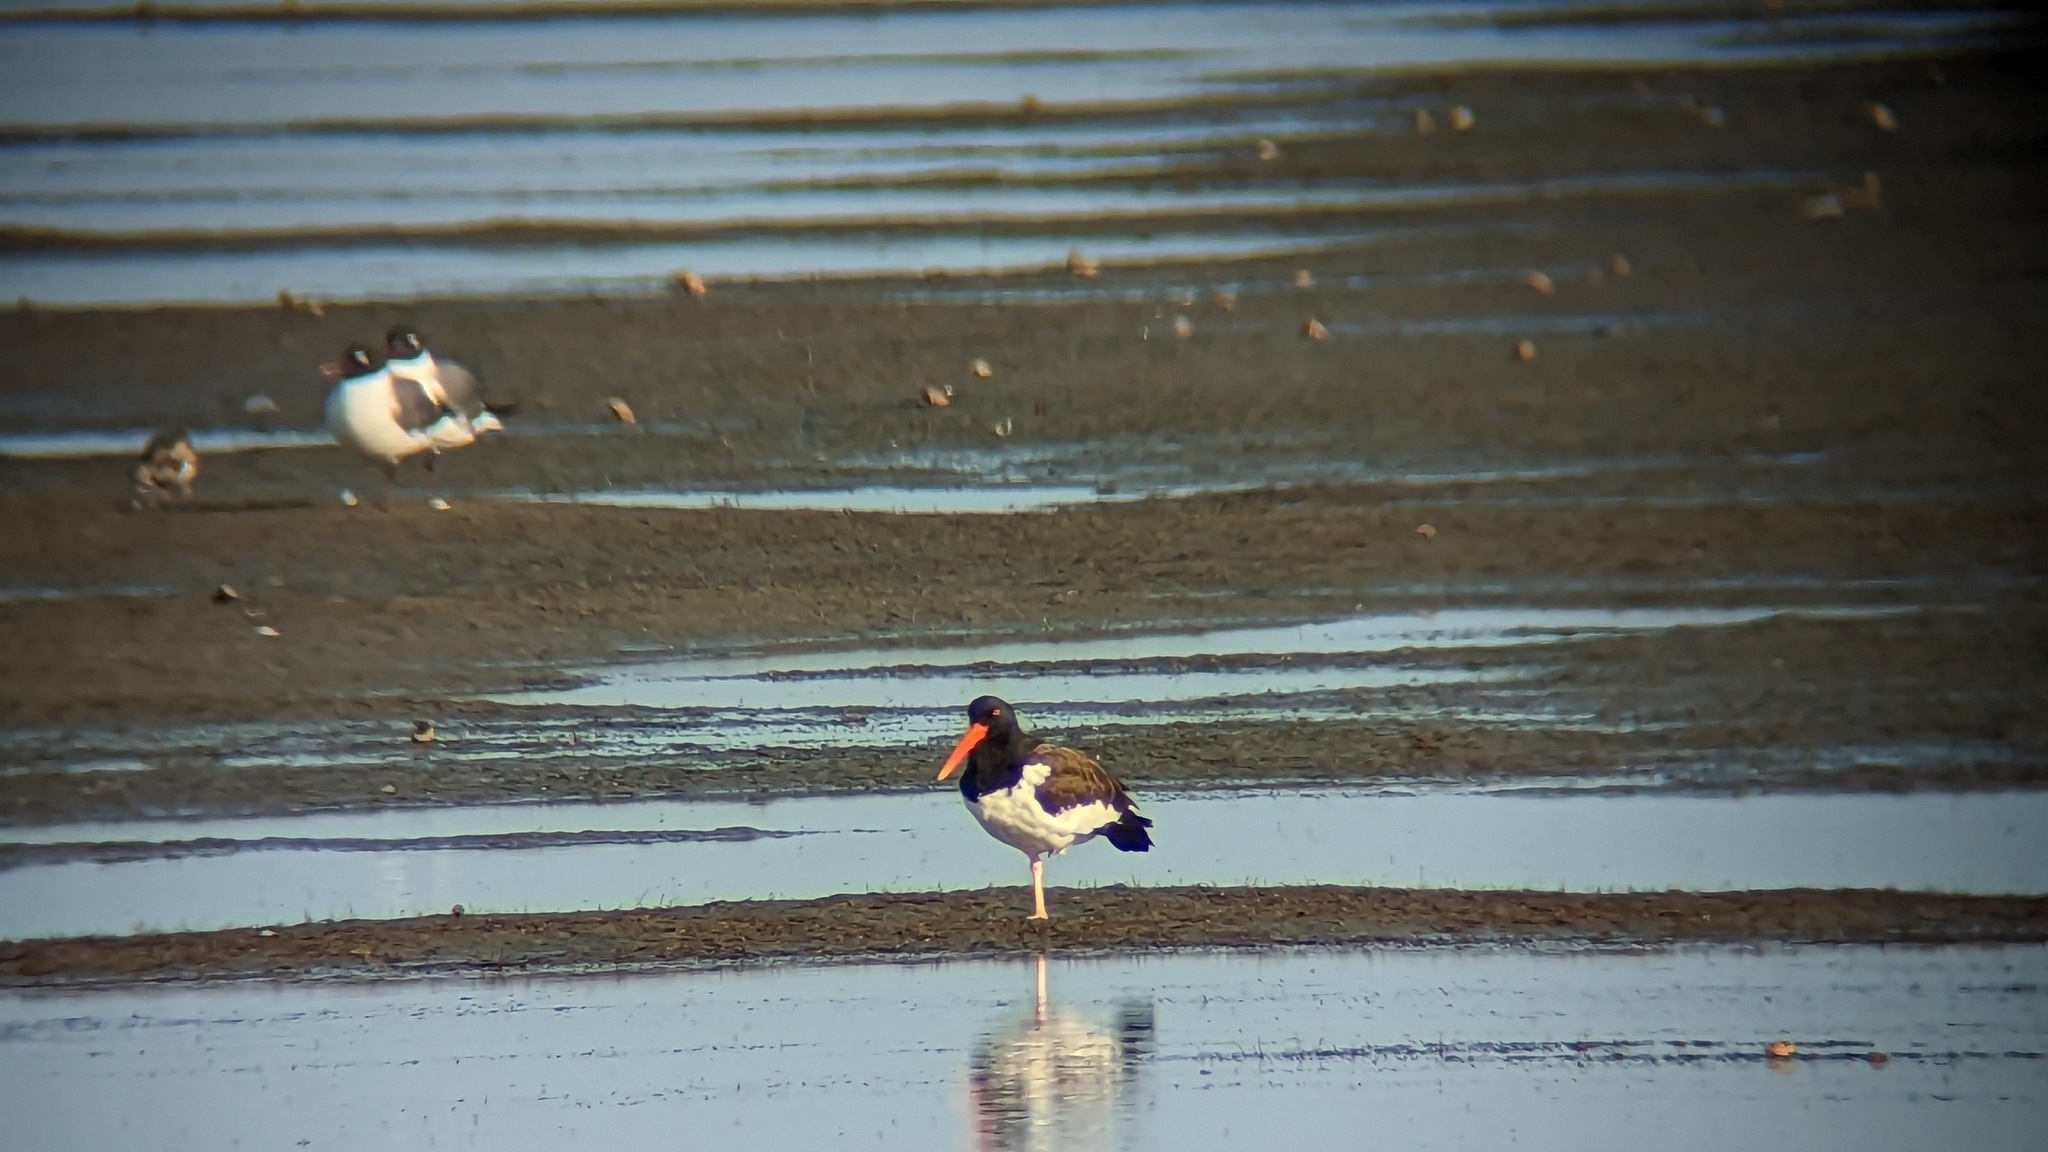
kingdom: Animalia
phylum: Chordata
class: Aves
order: Charadriiformes
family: Haematopodidae
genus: Haematopus
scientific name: Haematopus palliatus
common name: American oystercatcher
